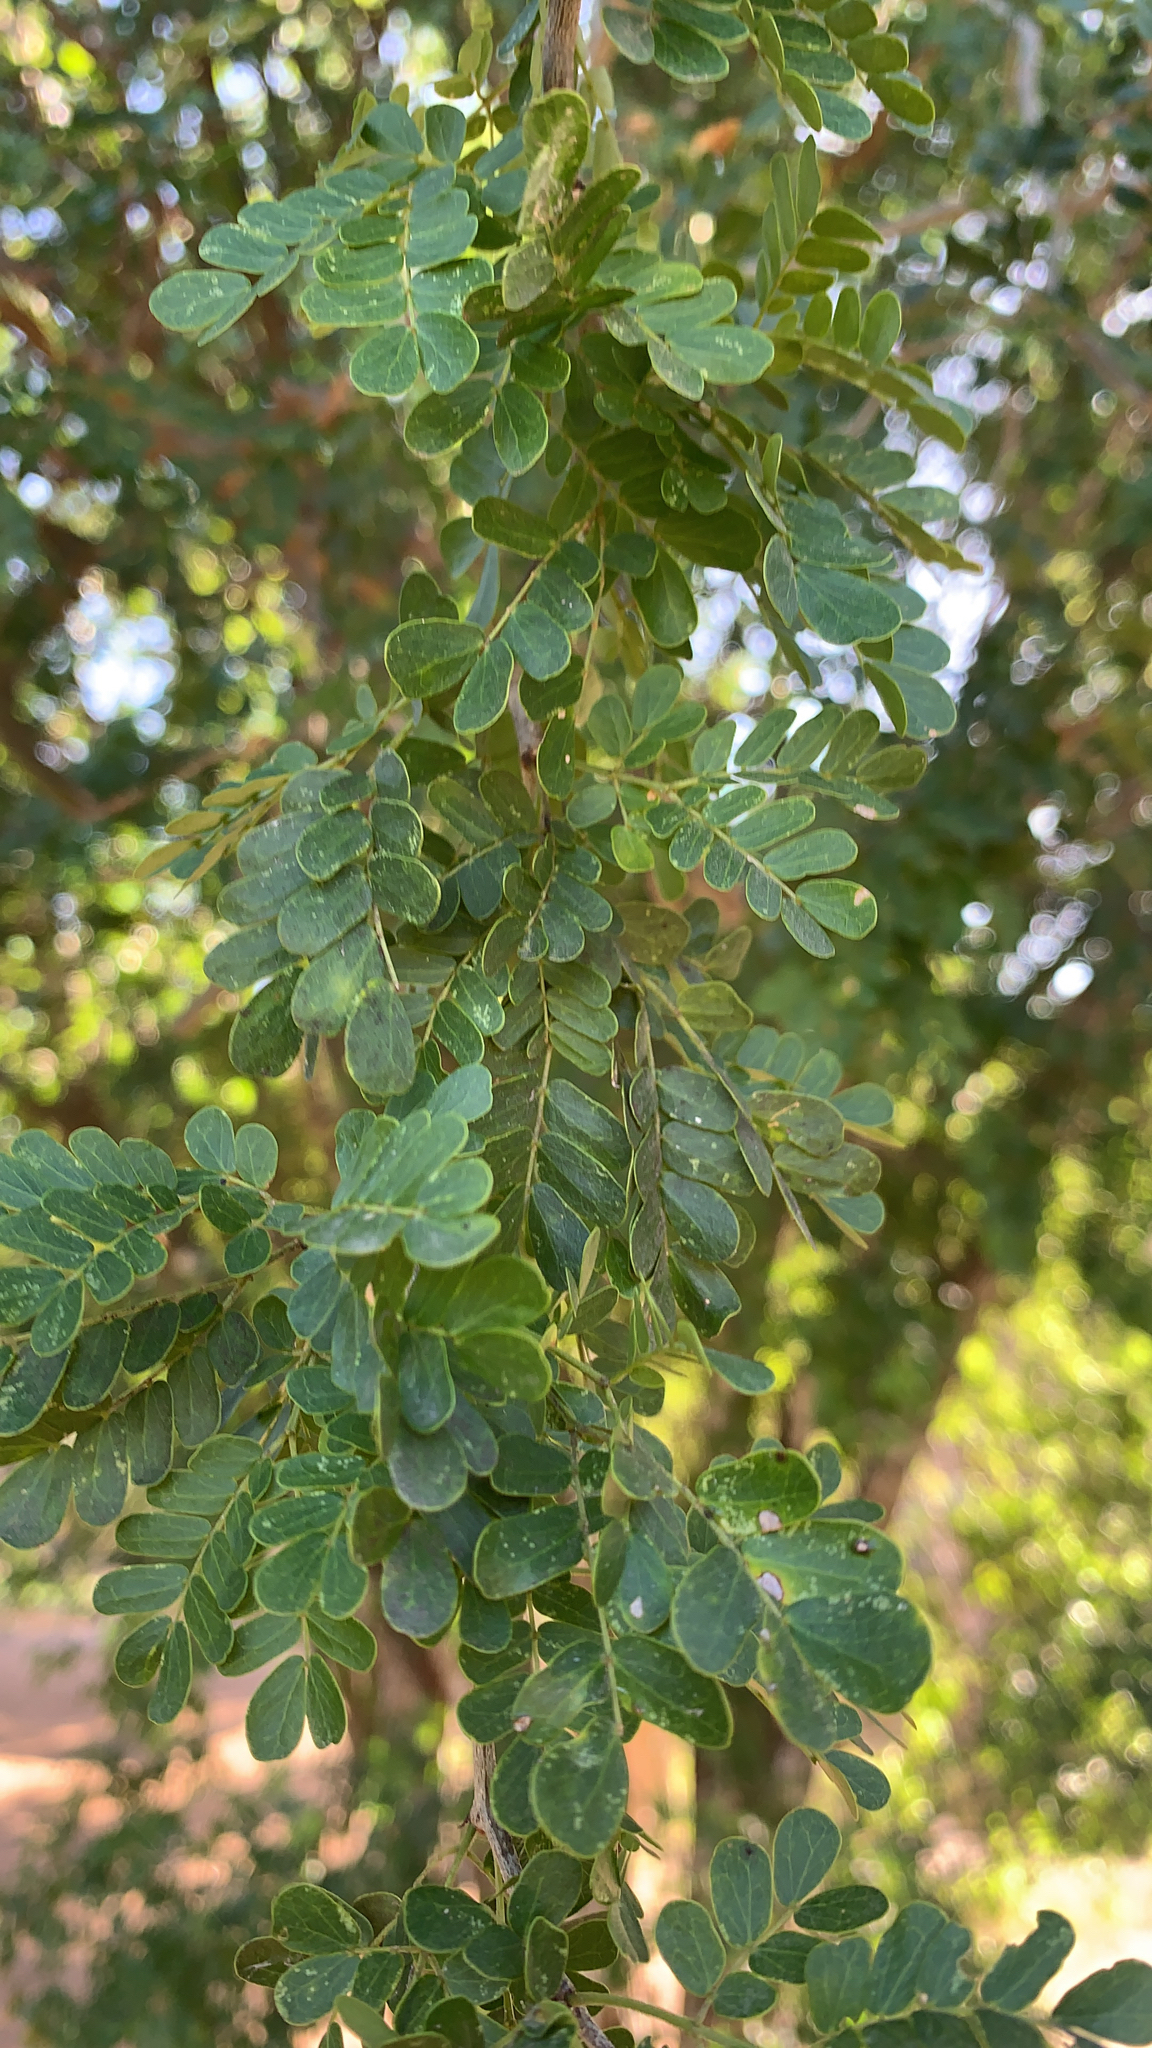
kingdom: Plantae
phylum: Tracheophyta
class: Magnoliopsida
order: Fabales
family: Fabaceae
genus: Ebenopsis
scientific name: Ebenopsis ebano
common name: Ebony blackbead
